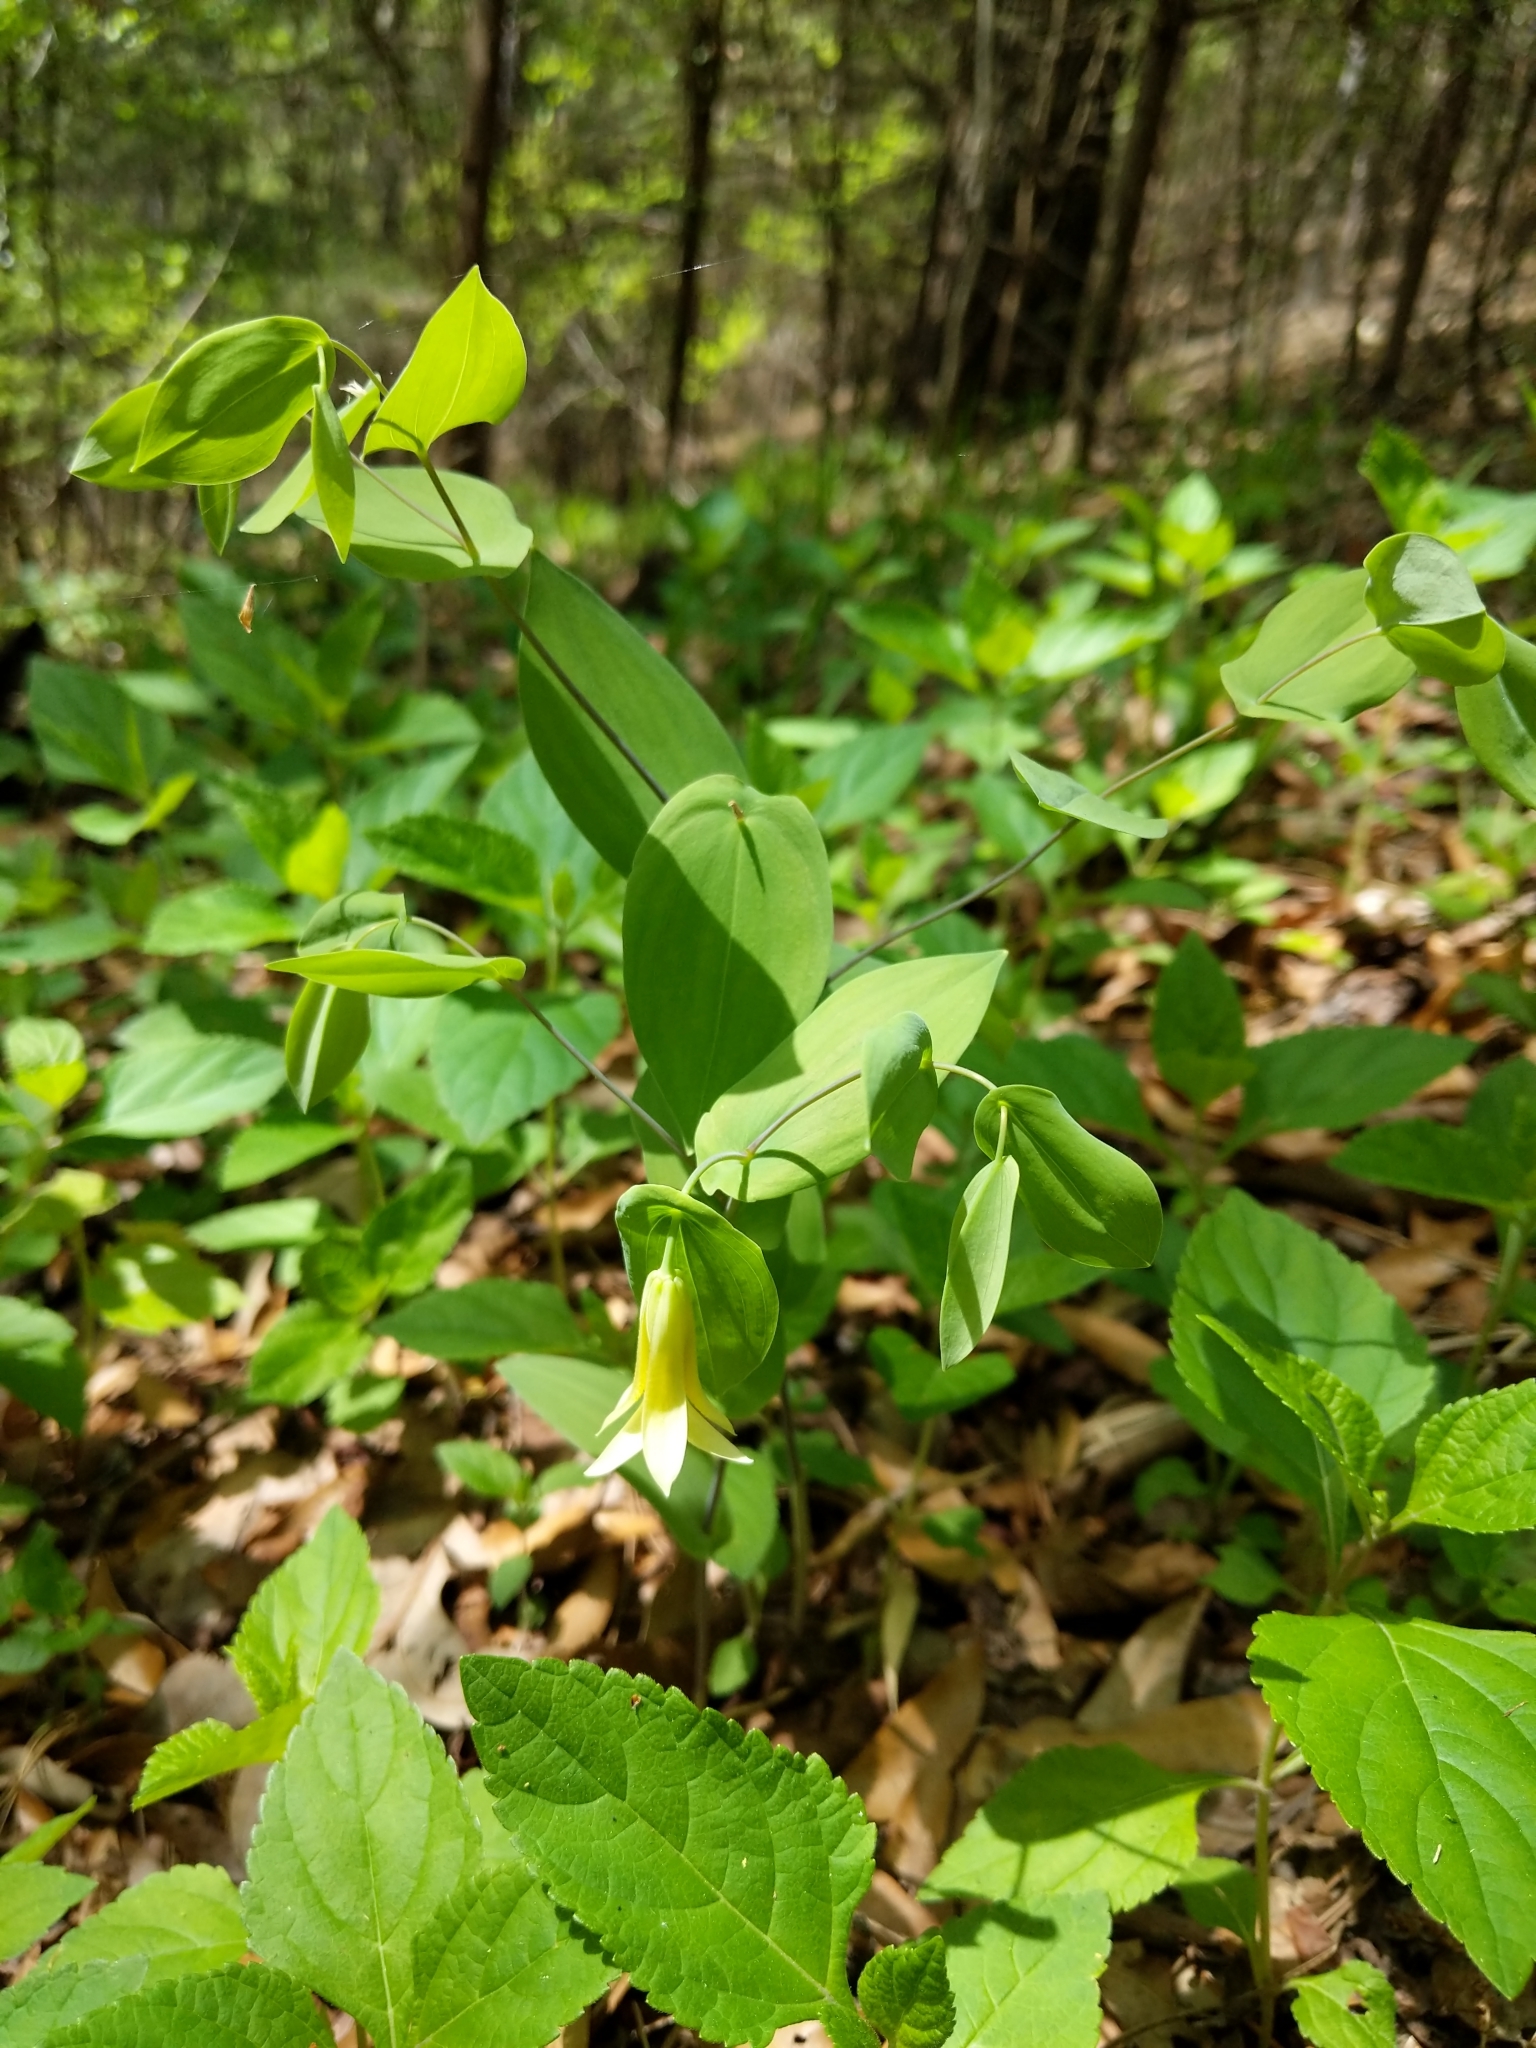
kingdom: Plantae
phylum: Tracheophyta
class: Liliopsida
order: Liliales
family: Colchicaceae
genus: Uvularia
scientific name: Uvularia perfoliata
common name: Perfoliate bellwort
